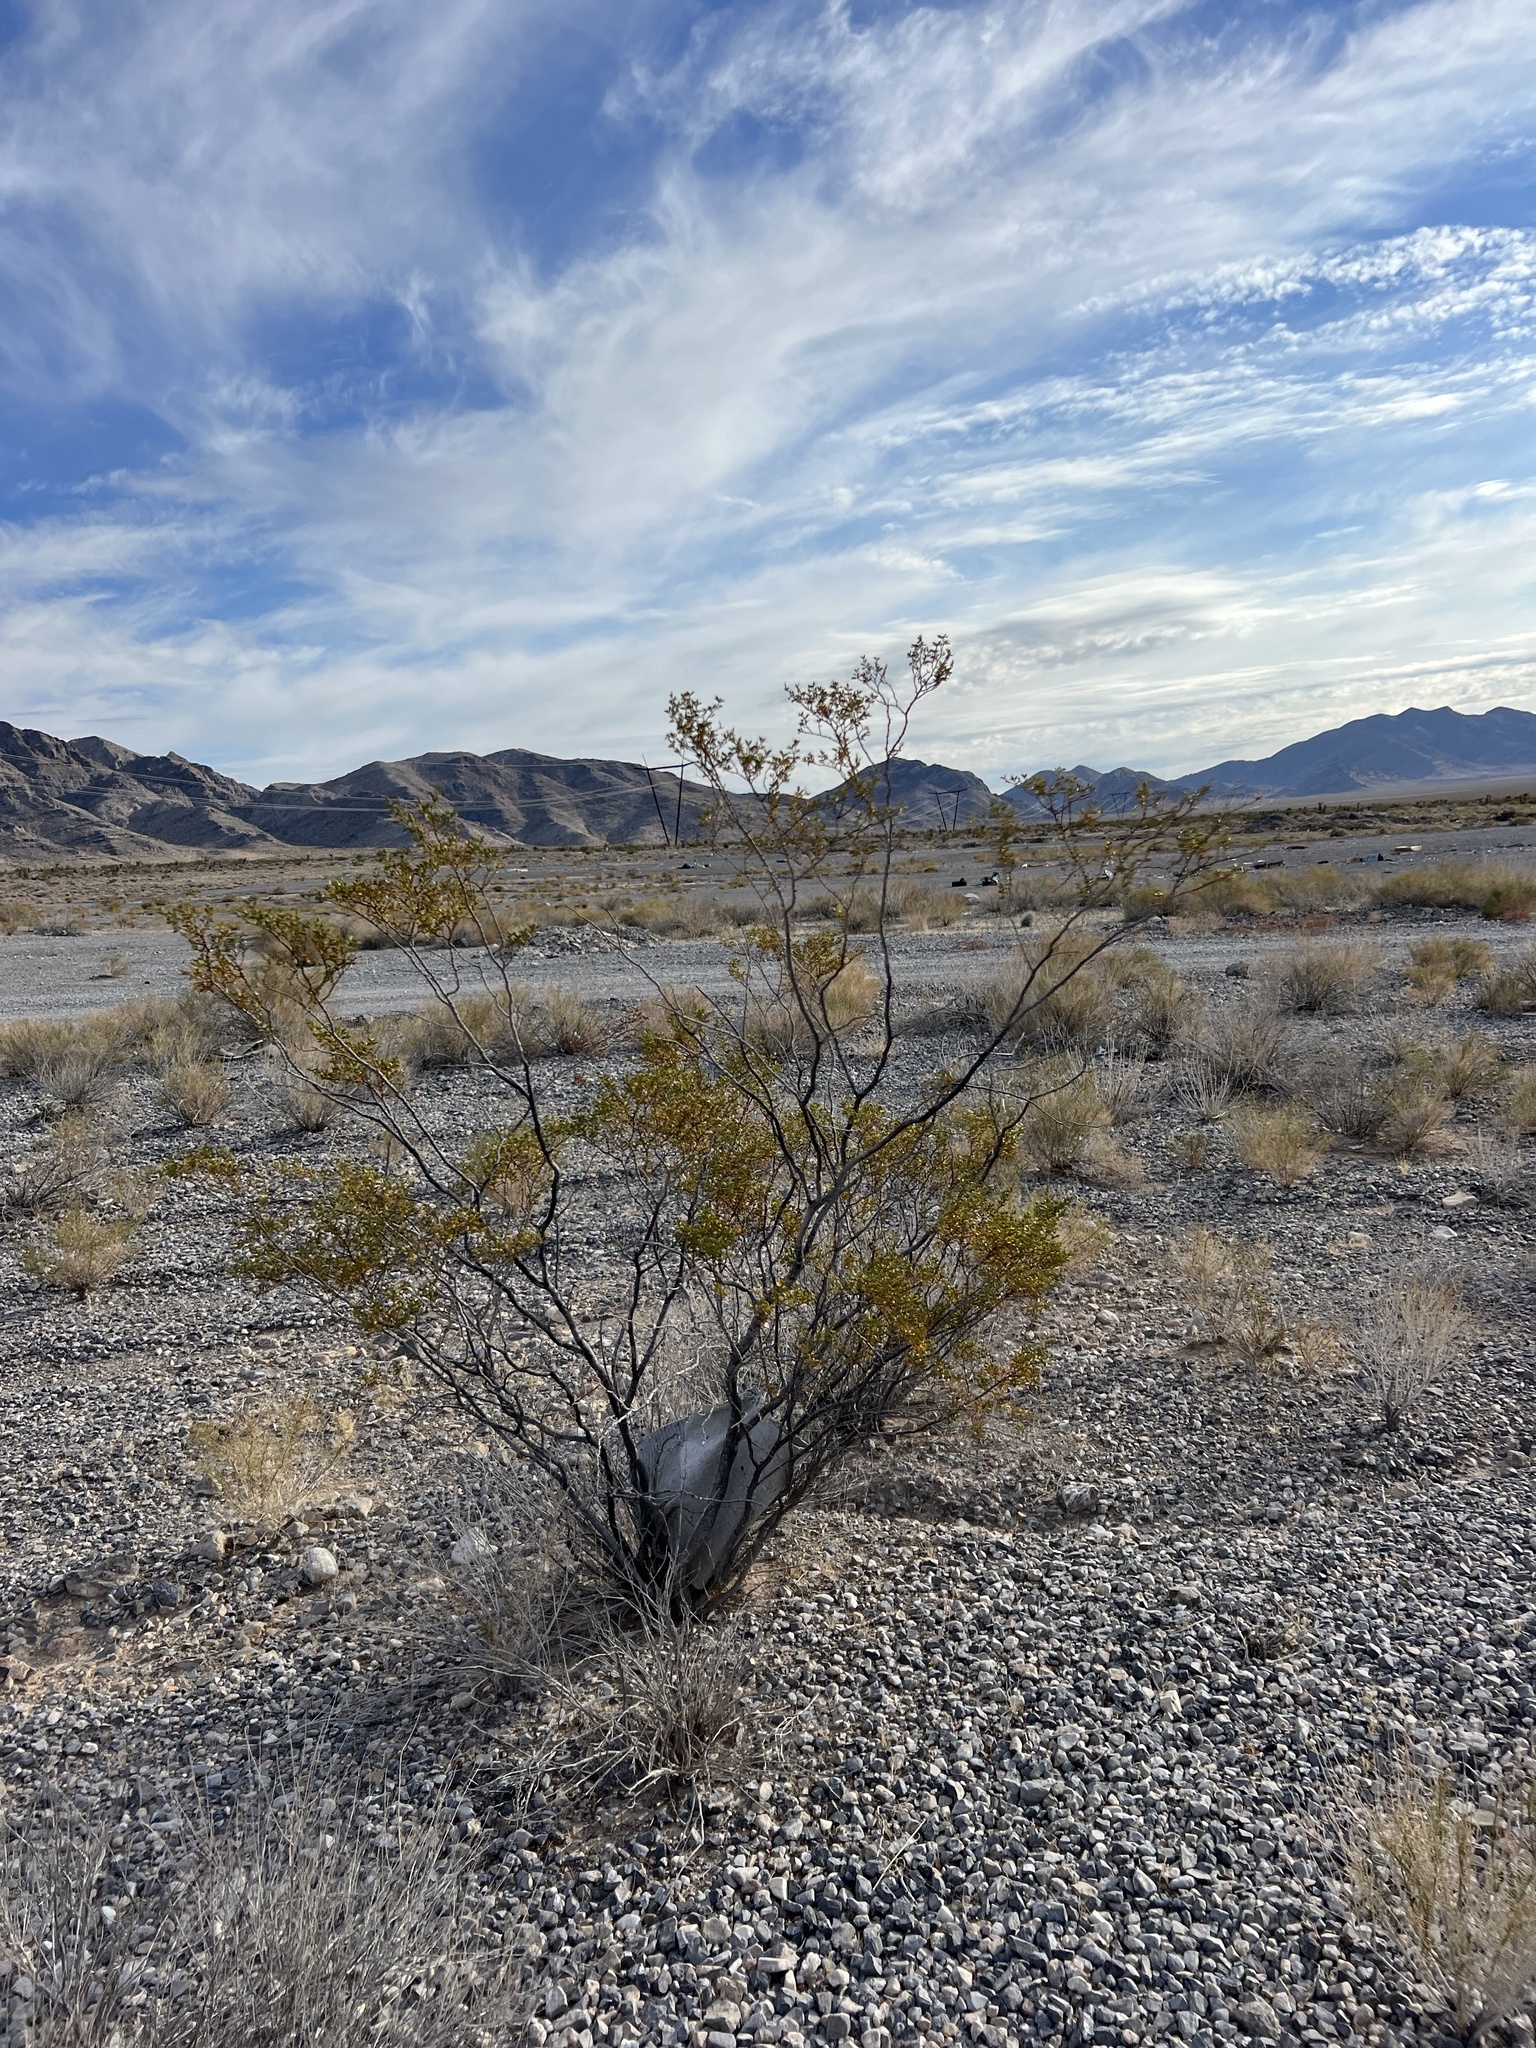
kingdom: Plantae
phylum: Tracheophyta
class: Magnoliopsida
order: Zygophyllales
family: Zygophyllaceae
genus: Larrea
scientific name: Larrea tridentata
